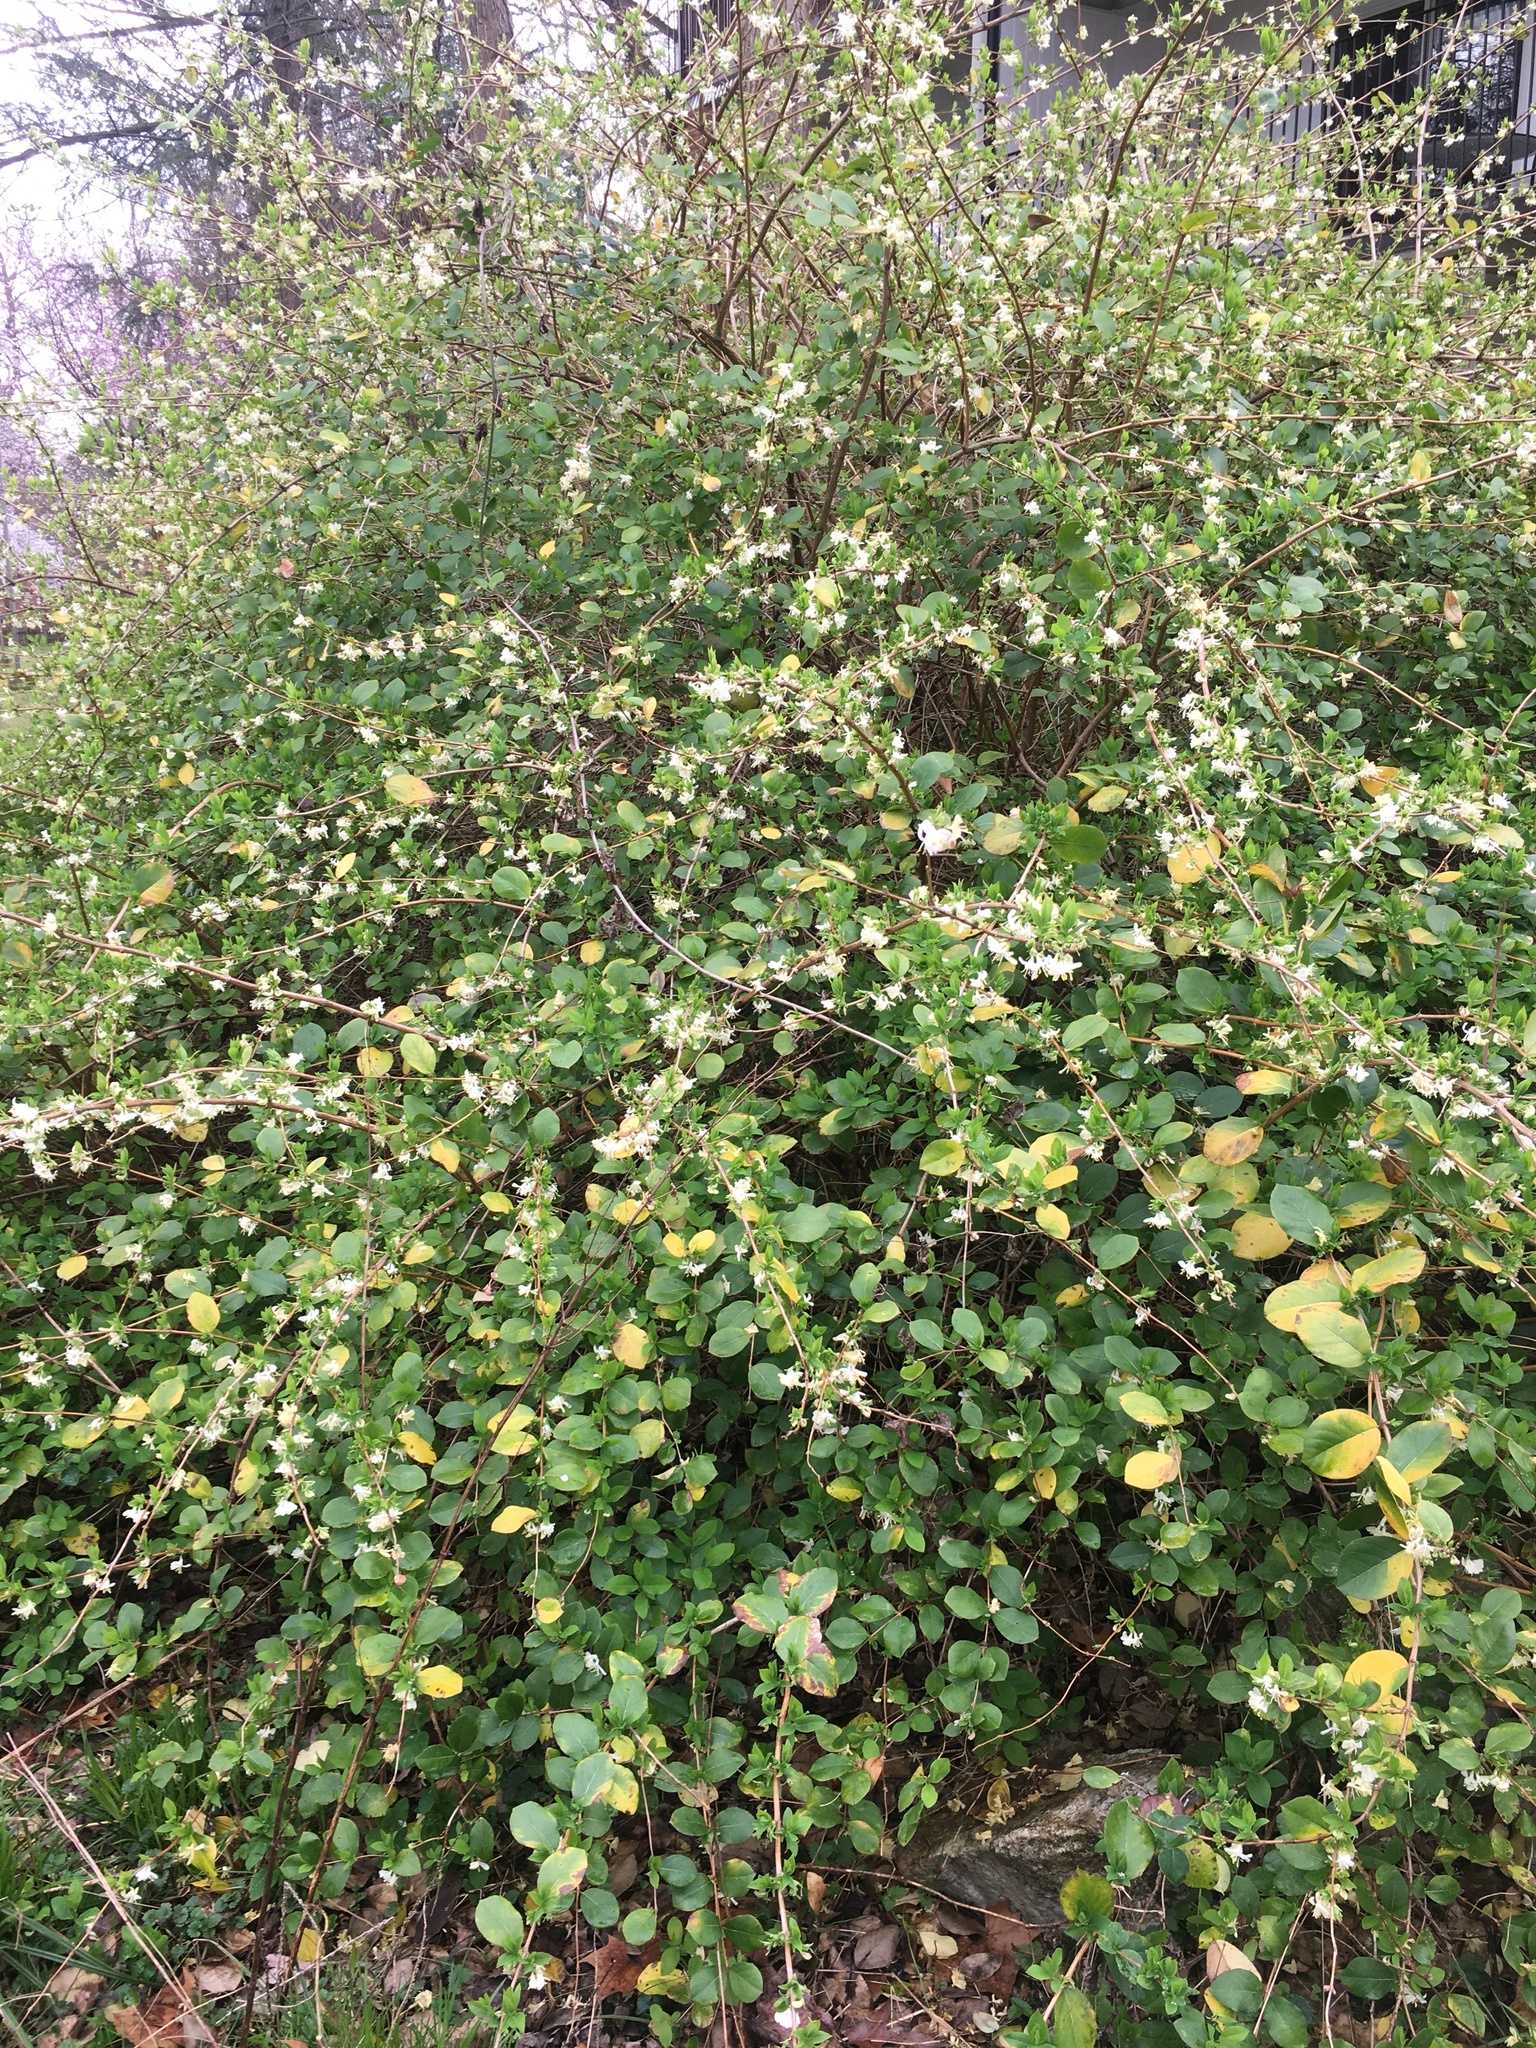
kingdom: Plantae
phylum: Tracheophyta
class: Magnoliopsida
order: Dipsacales
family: Caprifoliaceae
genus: Lonicera
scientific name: Lonicera fragrantissima
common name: Fragrant honeysuckle
